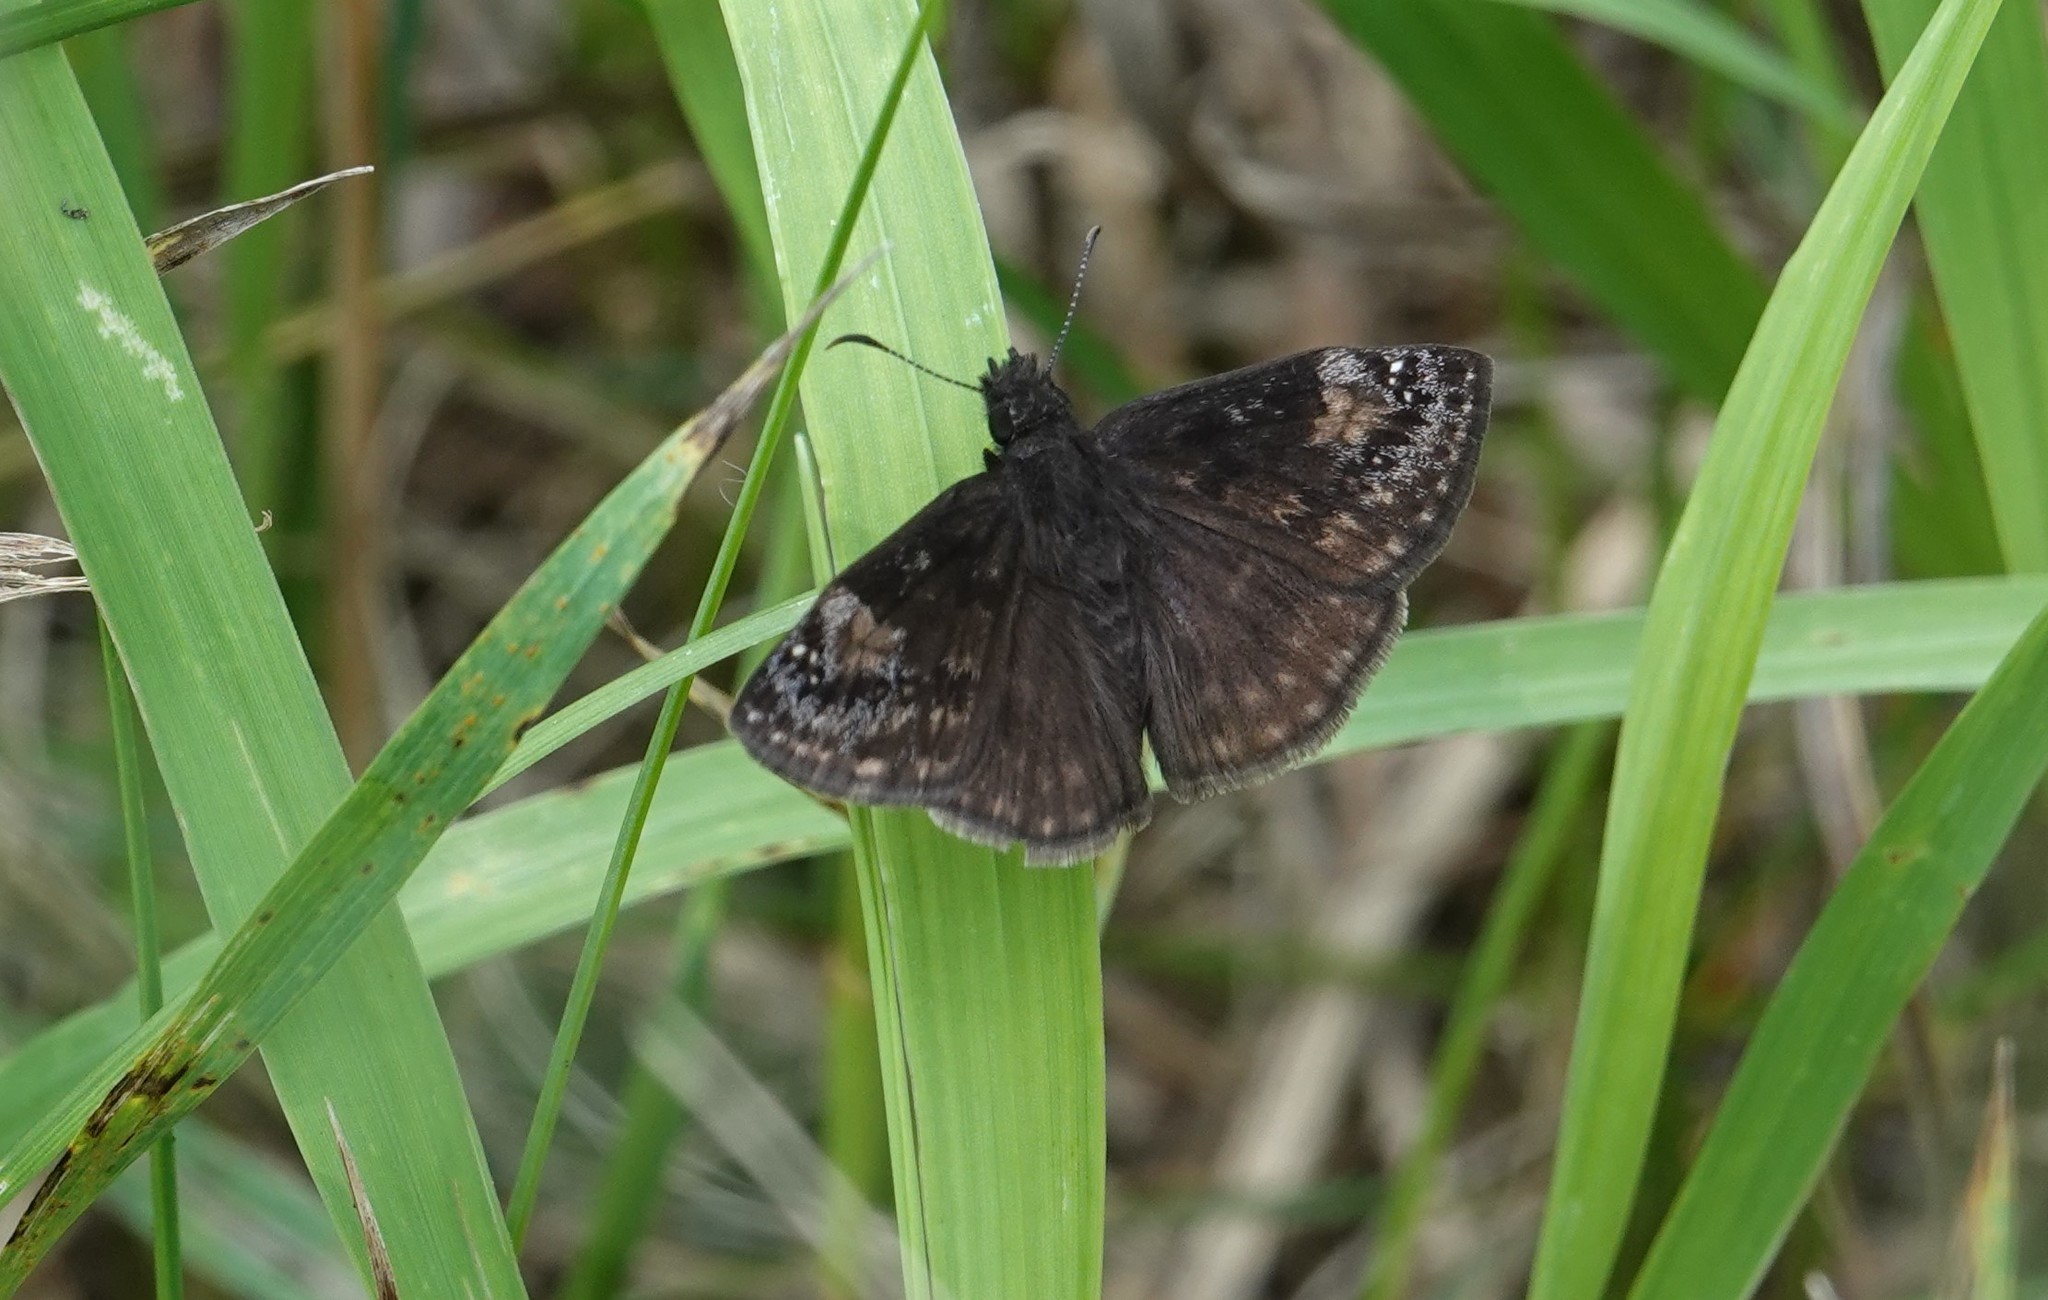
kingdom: Animalia
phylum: Arthropoda
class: Insecta
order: Lepidoptera
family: Hesperiidae
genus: Erynnis
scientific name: Erynnis baptisiae
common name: Wild indigo duskywing
